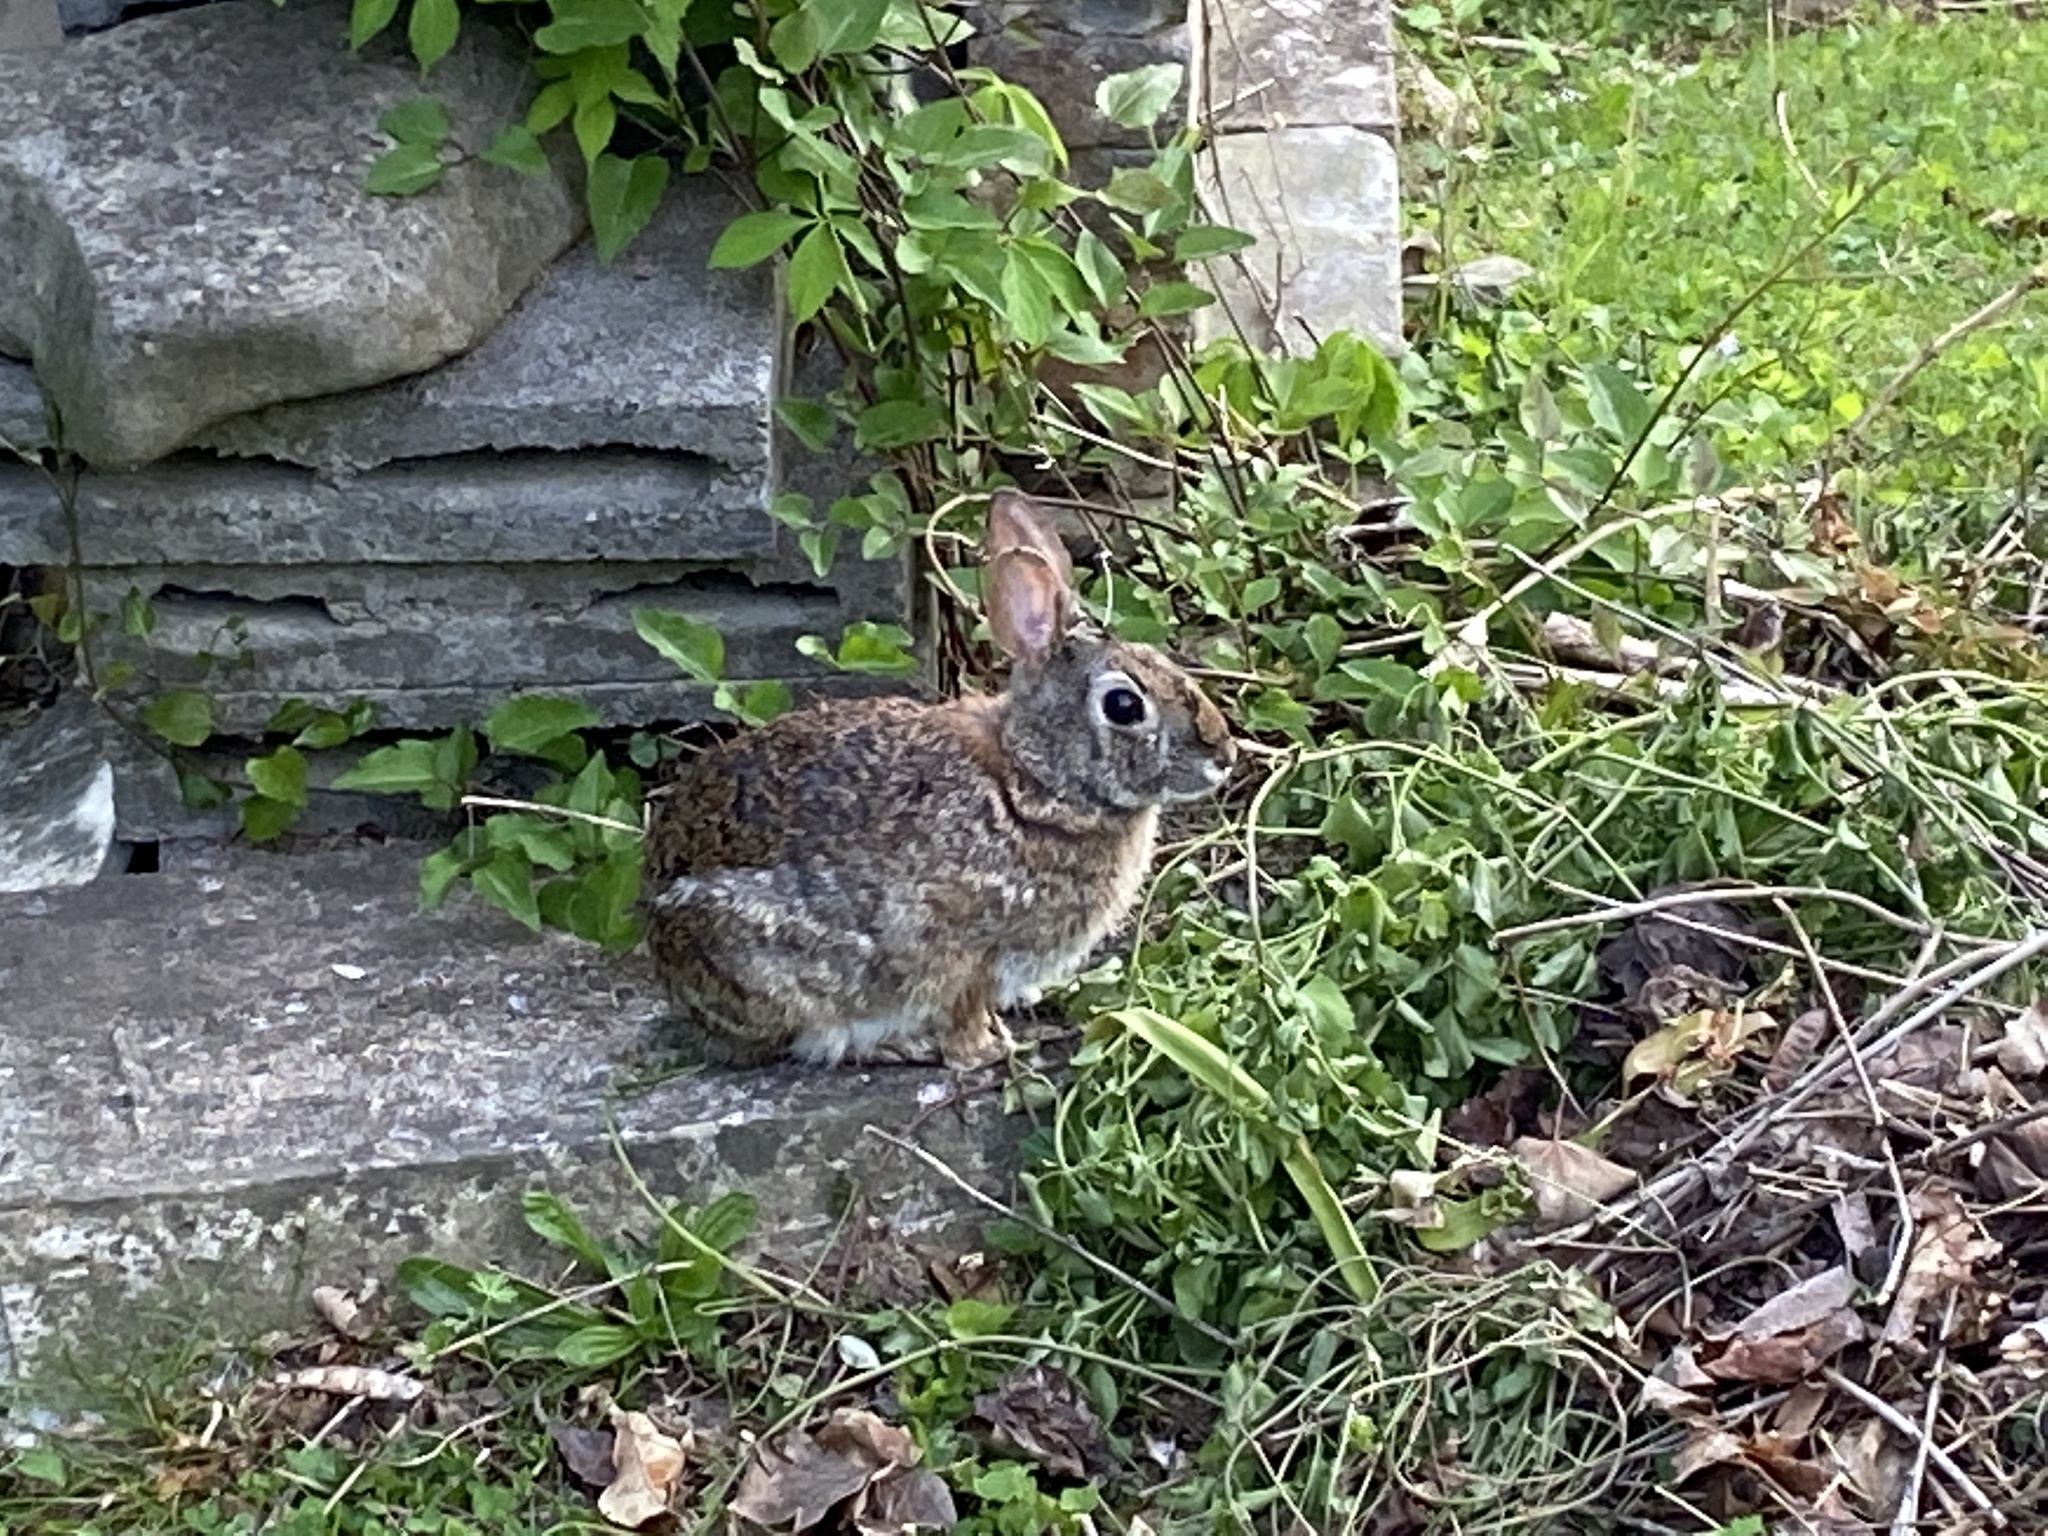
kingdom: Animalia
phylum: Chordata
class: Mammalia
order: Lagomorpha
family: Leporidae
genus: Sylvilagus
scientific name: Sylvilagus floridanus
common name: Eastern cottontail
